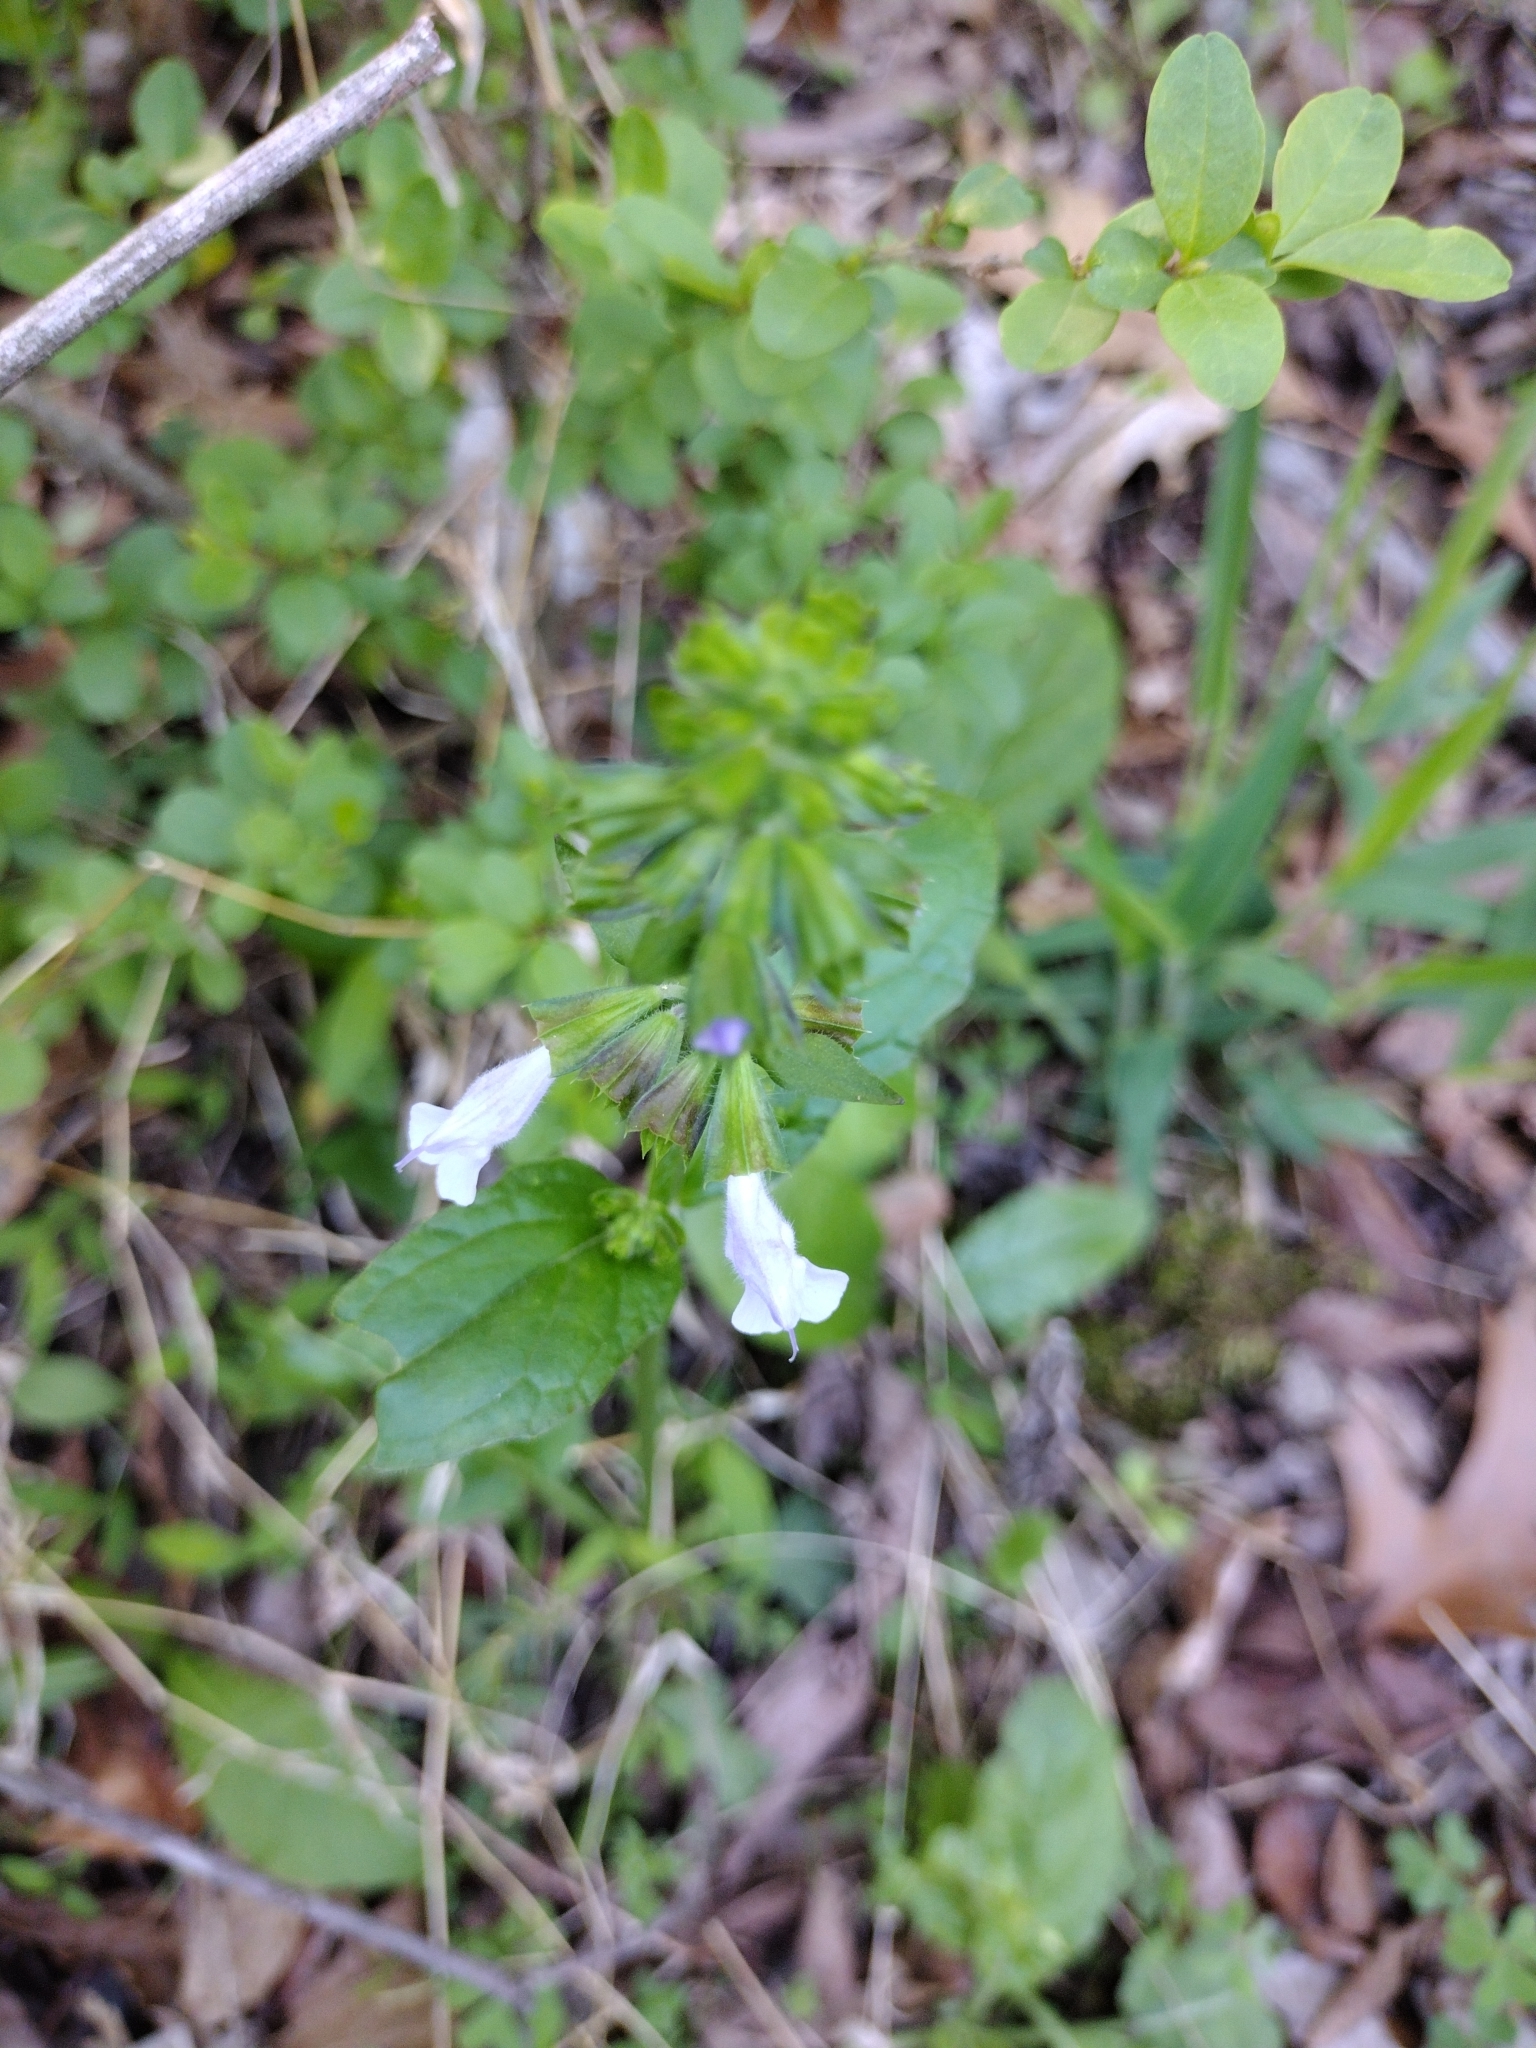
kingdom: Plantae
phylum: Tracheophyta
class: Magnoliopsida
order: Lamiales
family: Lamiaceae
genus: Salvia
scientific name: Salvia lyrata
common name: Cancerweed
